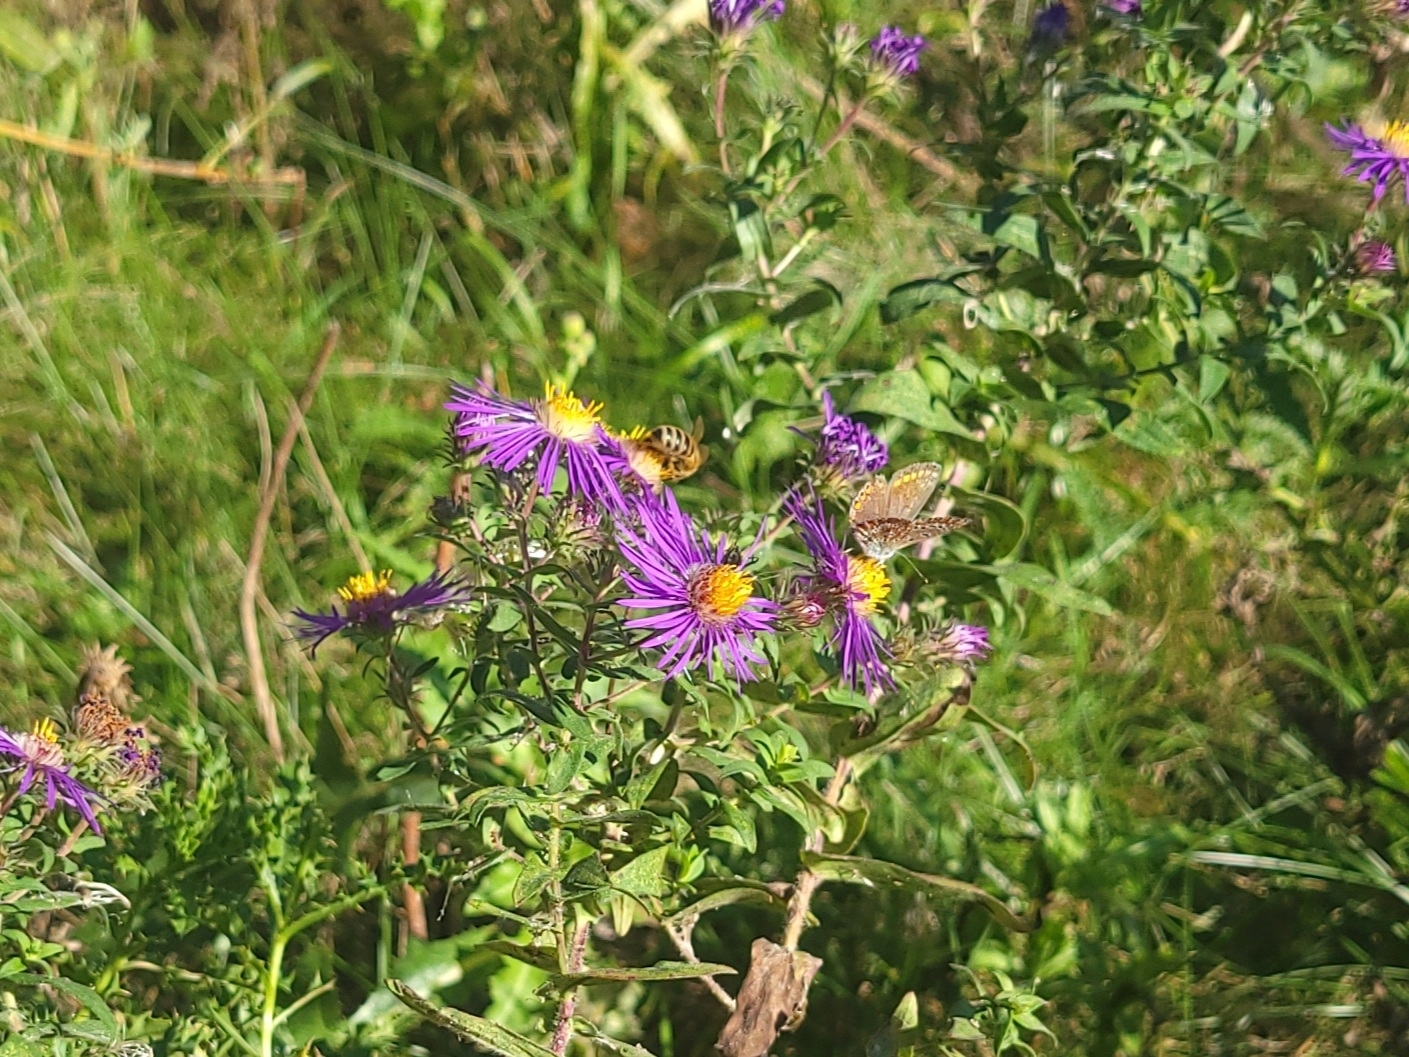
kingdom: Plantae
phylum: Tracheophyta
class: Magnoliopsida
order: Asterales
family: Asteraceae
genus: Symphyotrichum
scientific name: Symphyotrichum novae-angliae
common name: Michaelmas daisy
